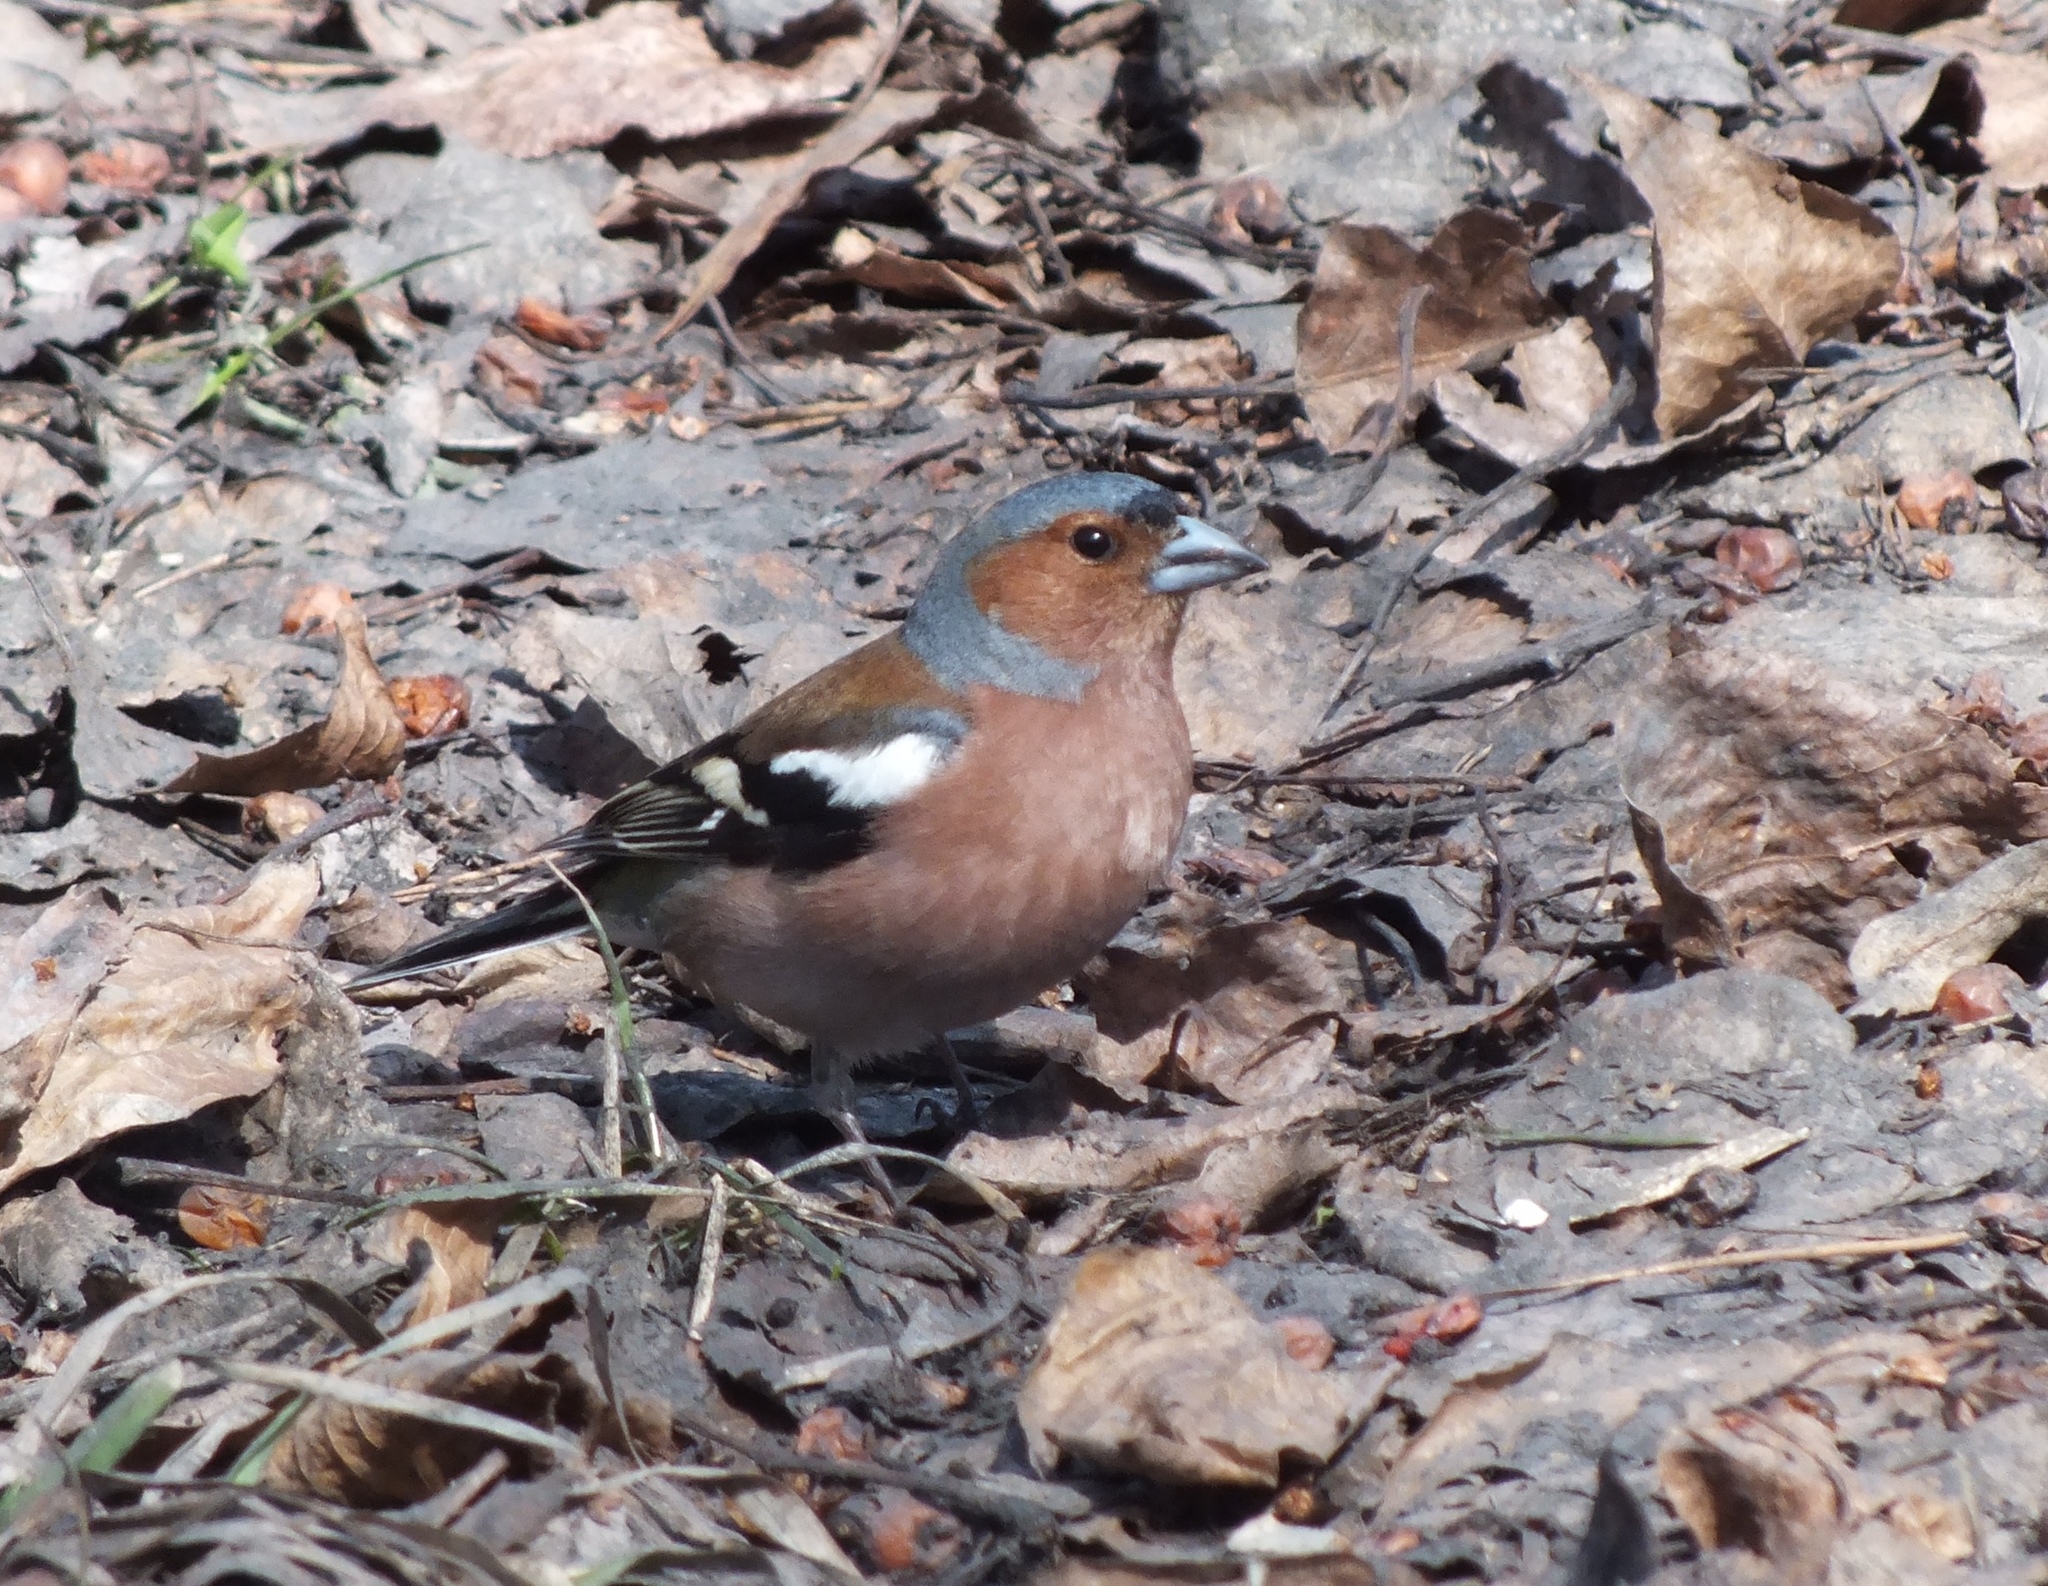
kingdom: Animalia
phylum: Chordata
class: Aves
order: Passeriformes
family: Fringillidae
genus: Fringilla
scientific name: Fringilla coelebs
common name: Common chaffinch
